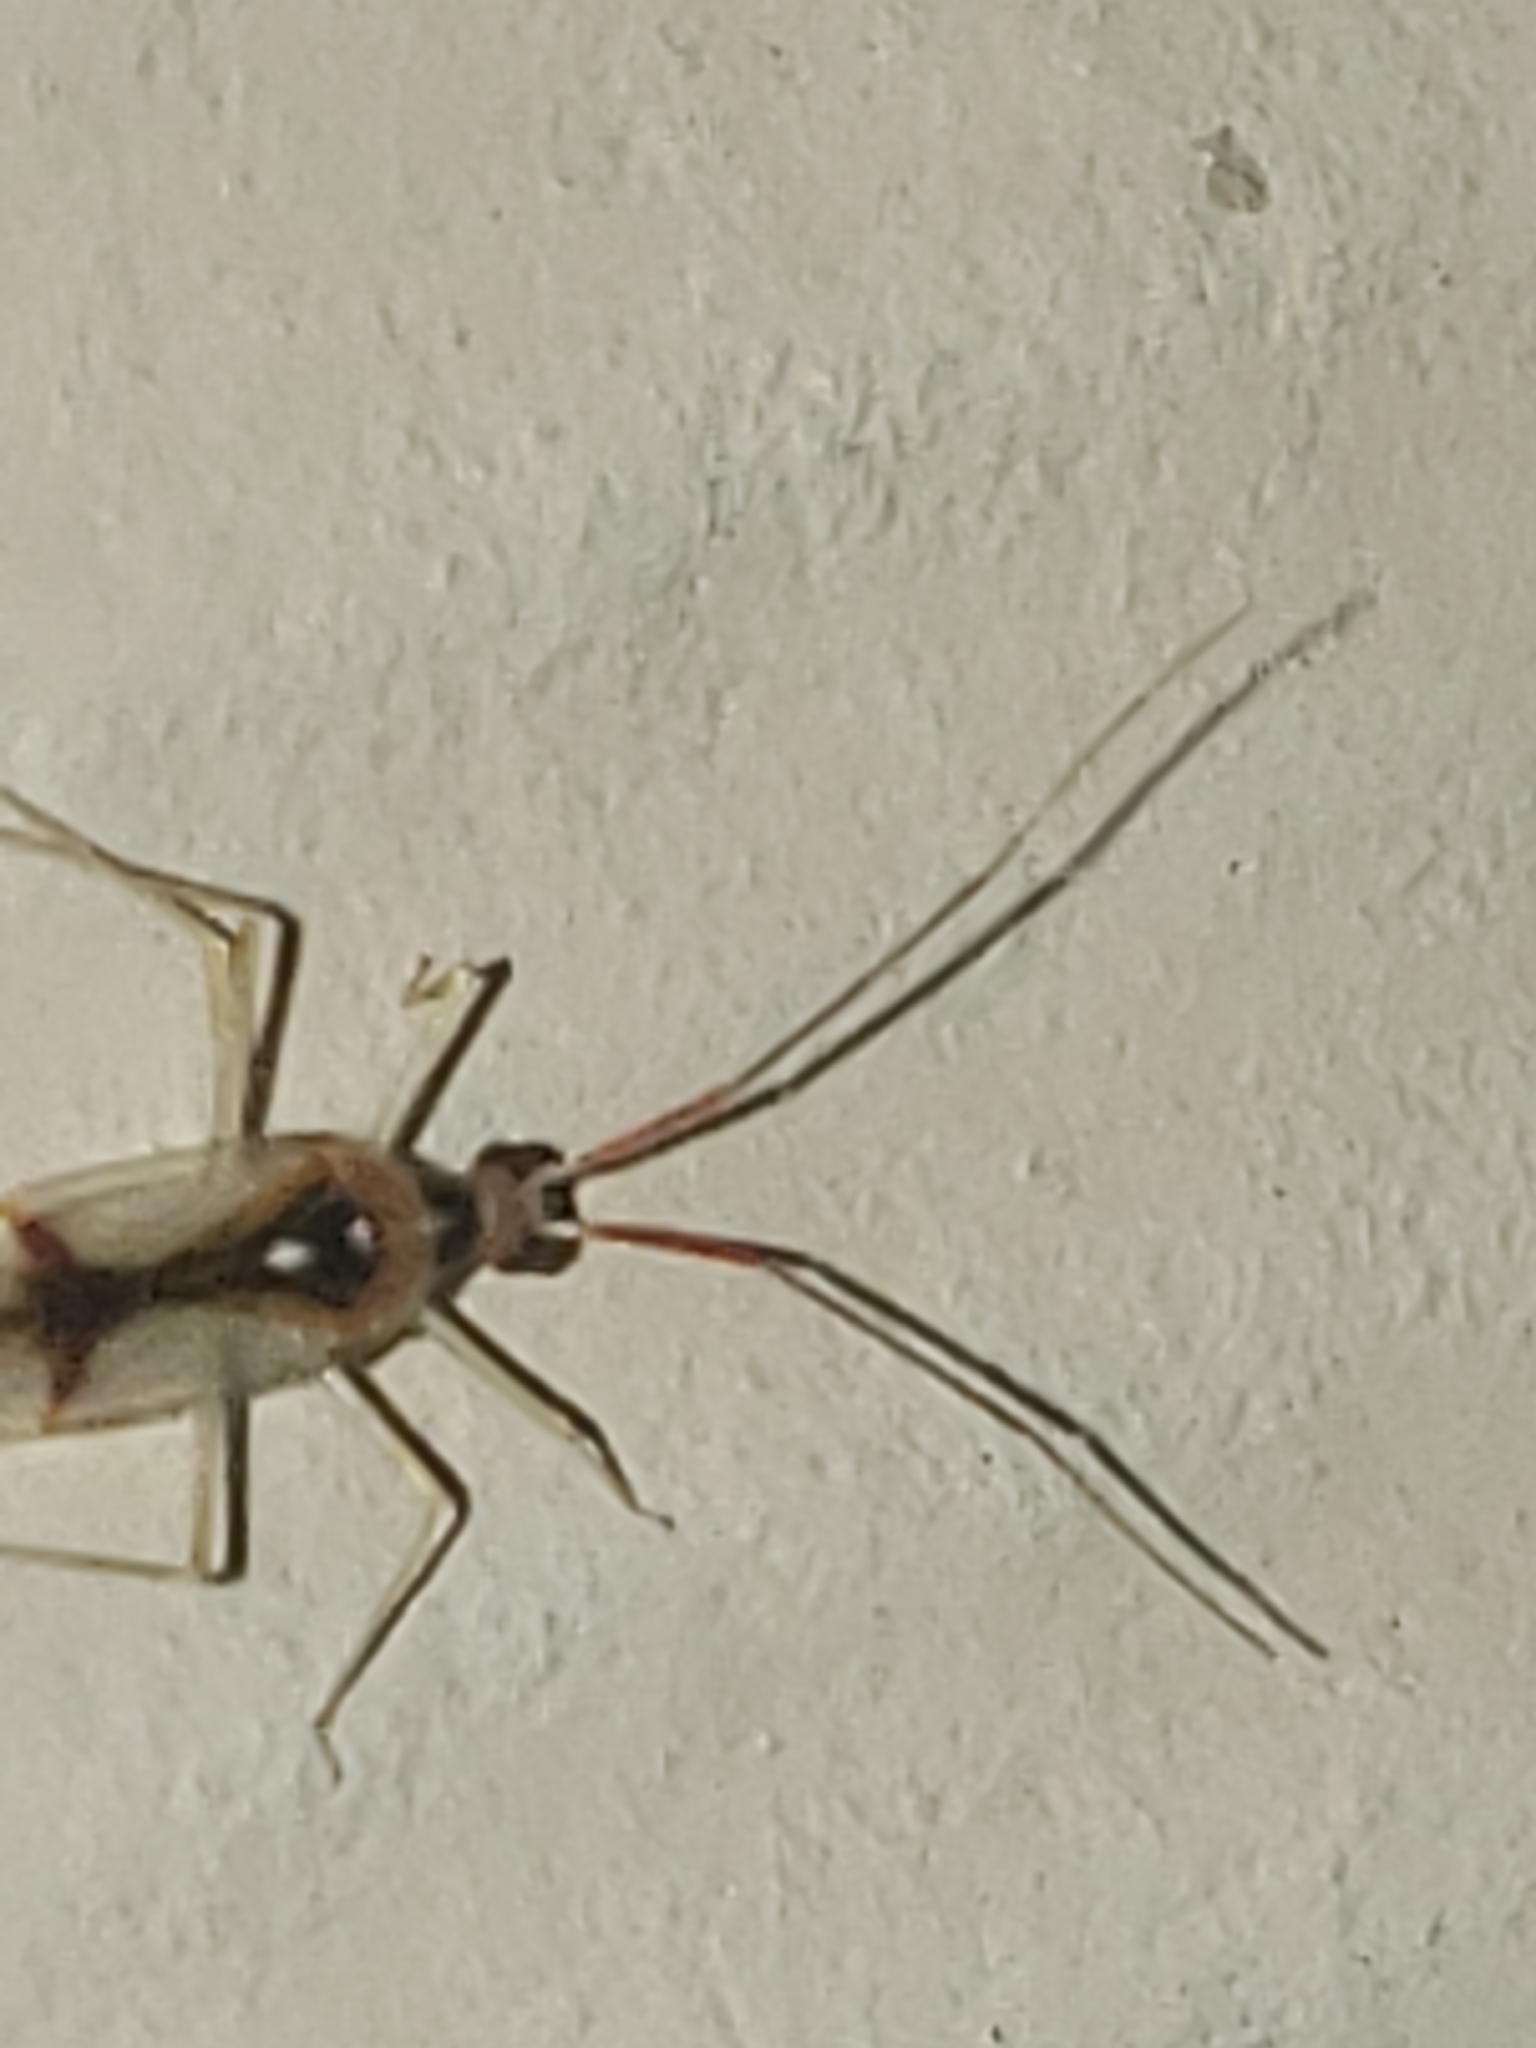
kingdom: Animalia
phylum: Arthropoda
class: Insecta
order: Hemiptera
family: Miridae
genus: Hyaliodes
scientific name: Hyaliodes harti
